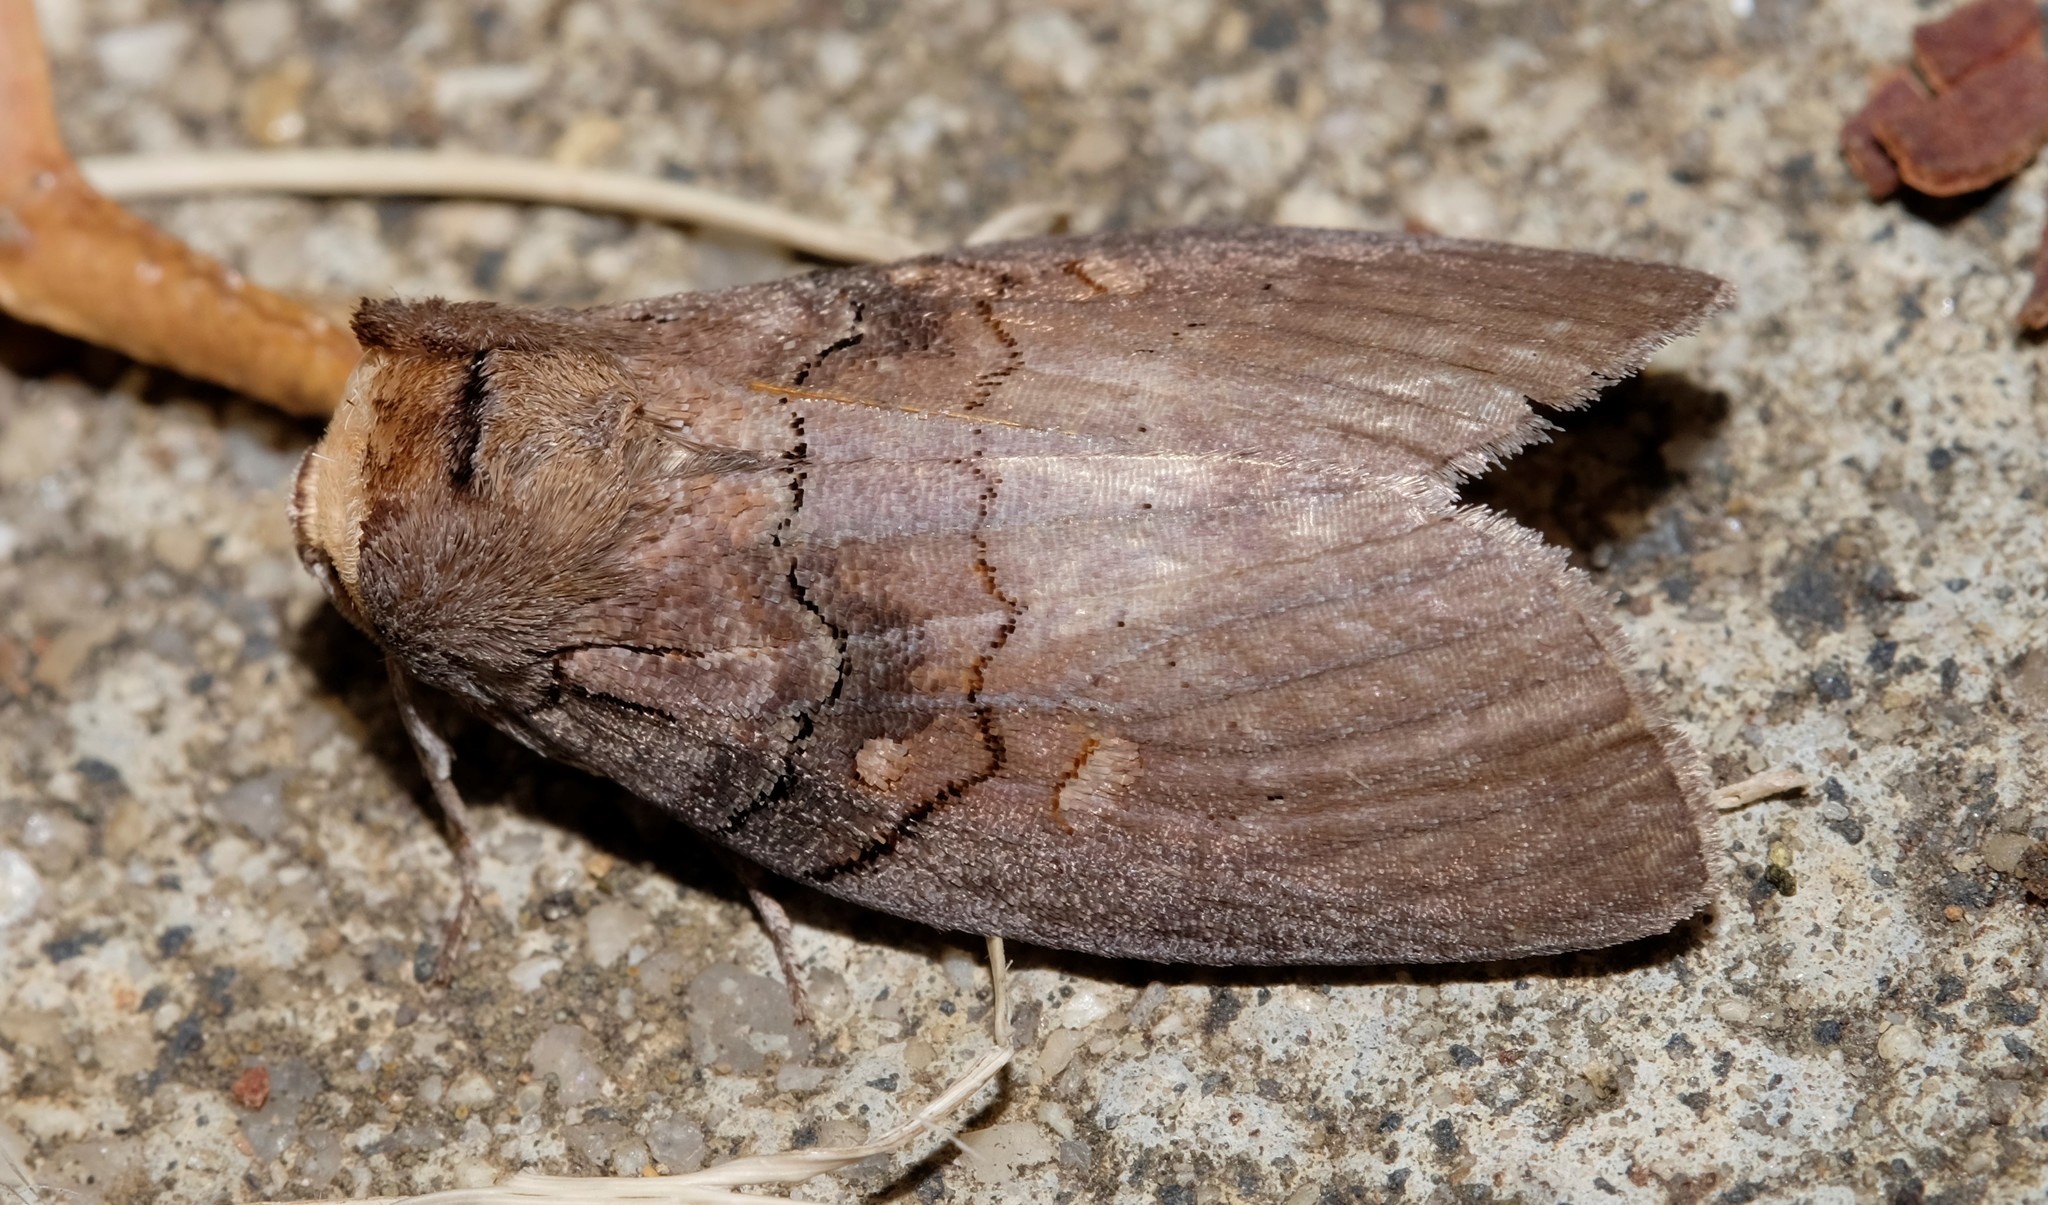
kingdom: Animalia
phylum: Arthropoda
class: Insecta
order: Lepidoptera
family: Oenosandridae
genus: Discophlebia
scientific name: Discophlebia lucasii
